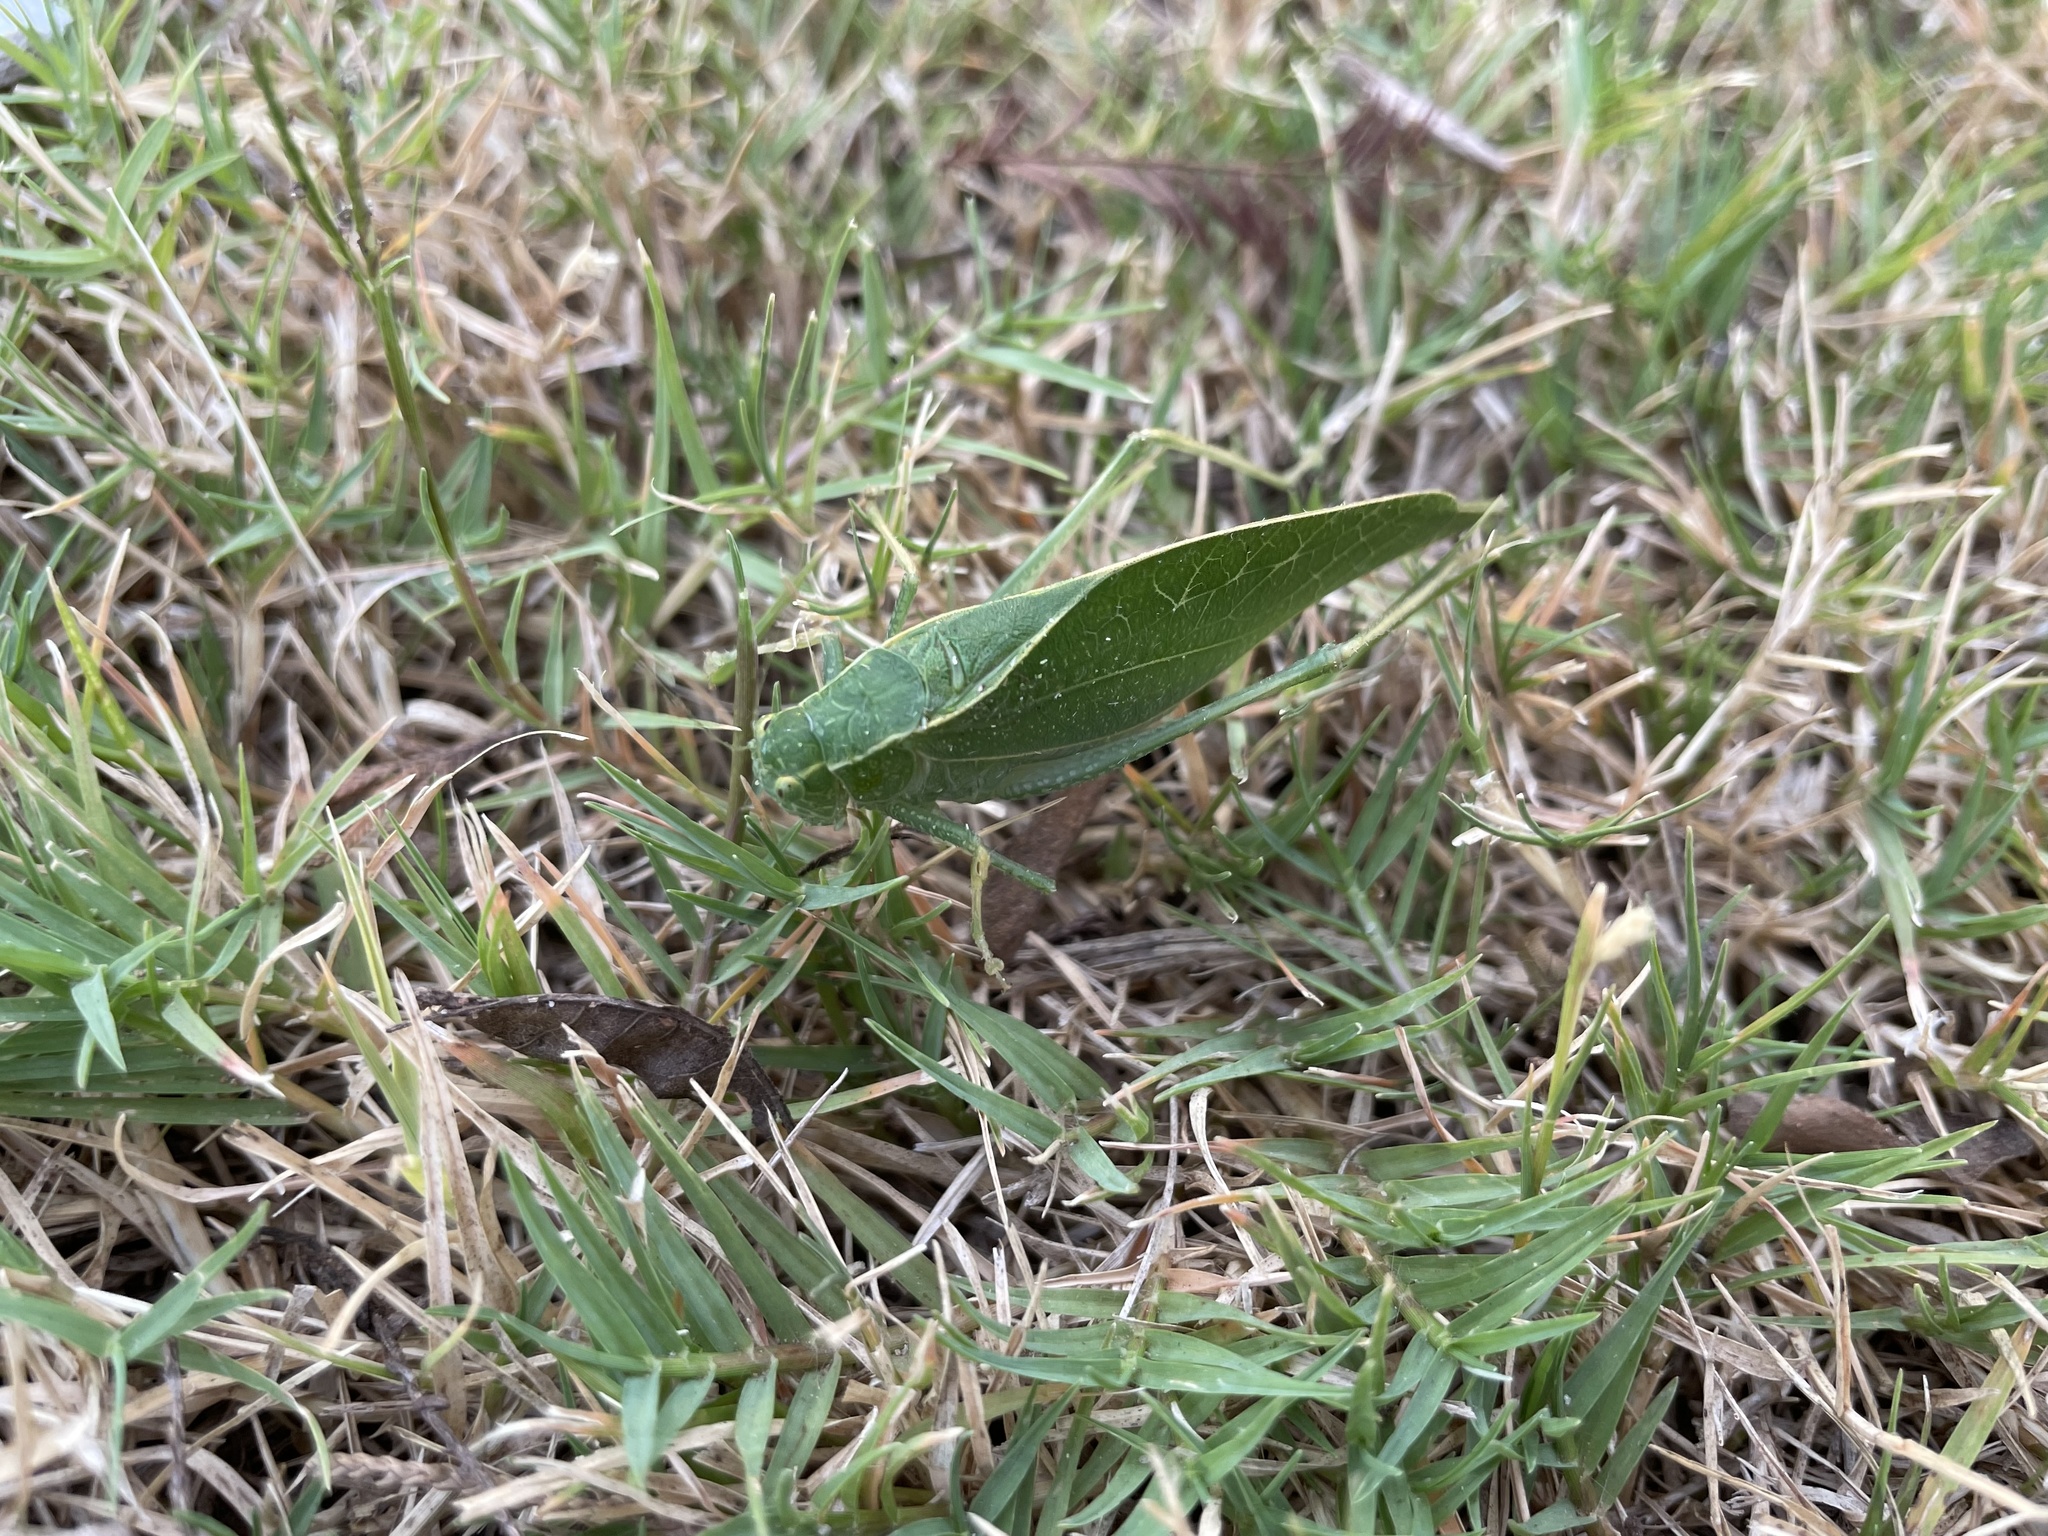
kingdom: Animalia
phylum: Arthropoda
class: Insecta
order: Orthoptera
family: Tettigoniidae
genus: Microcentrum
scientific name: Microcentrum rhombifolium
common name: Broad-winged katydid
